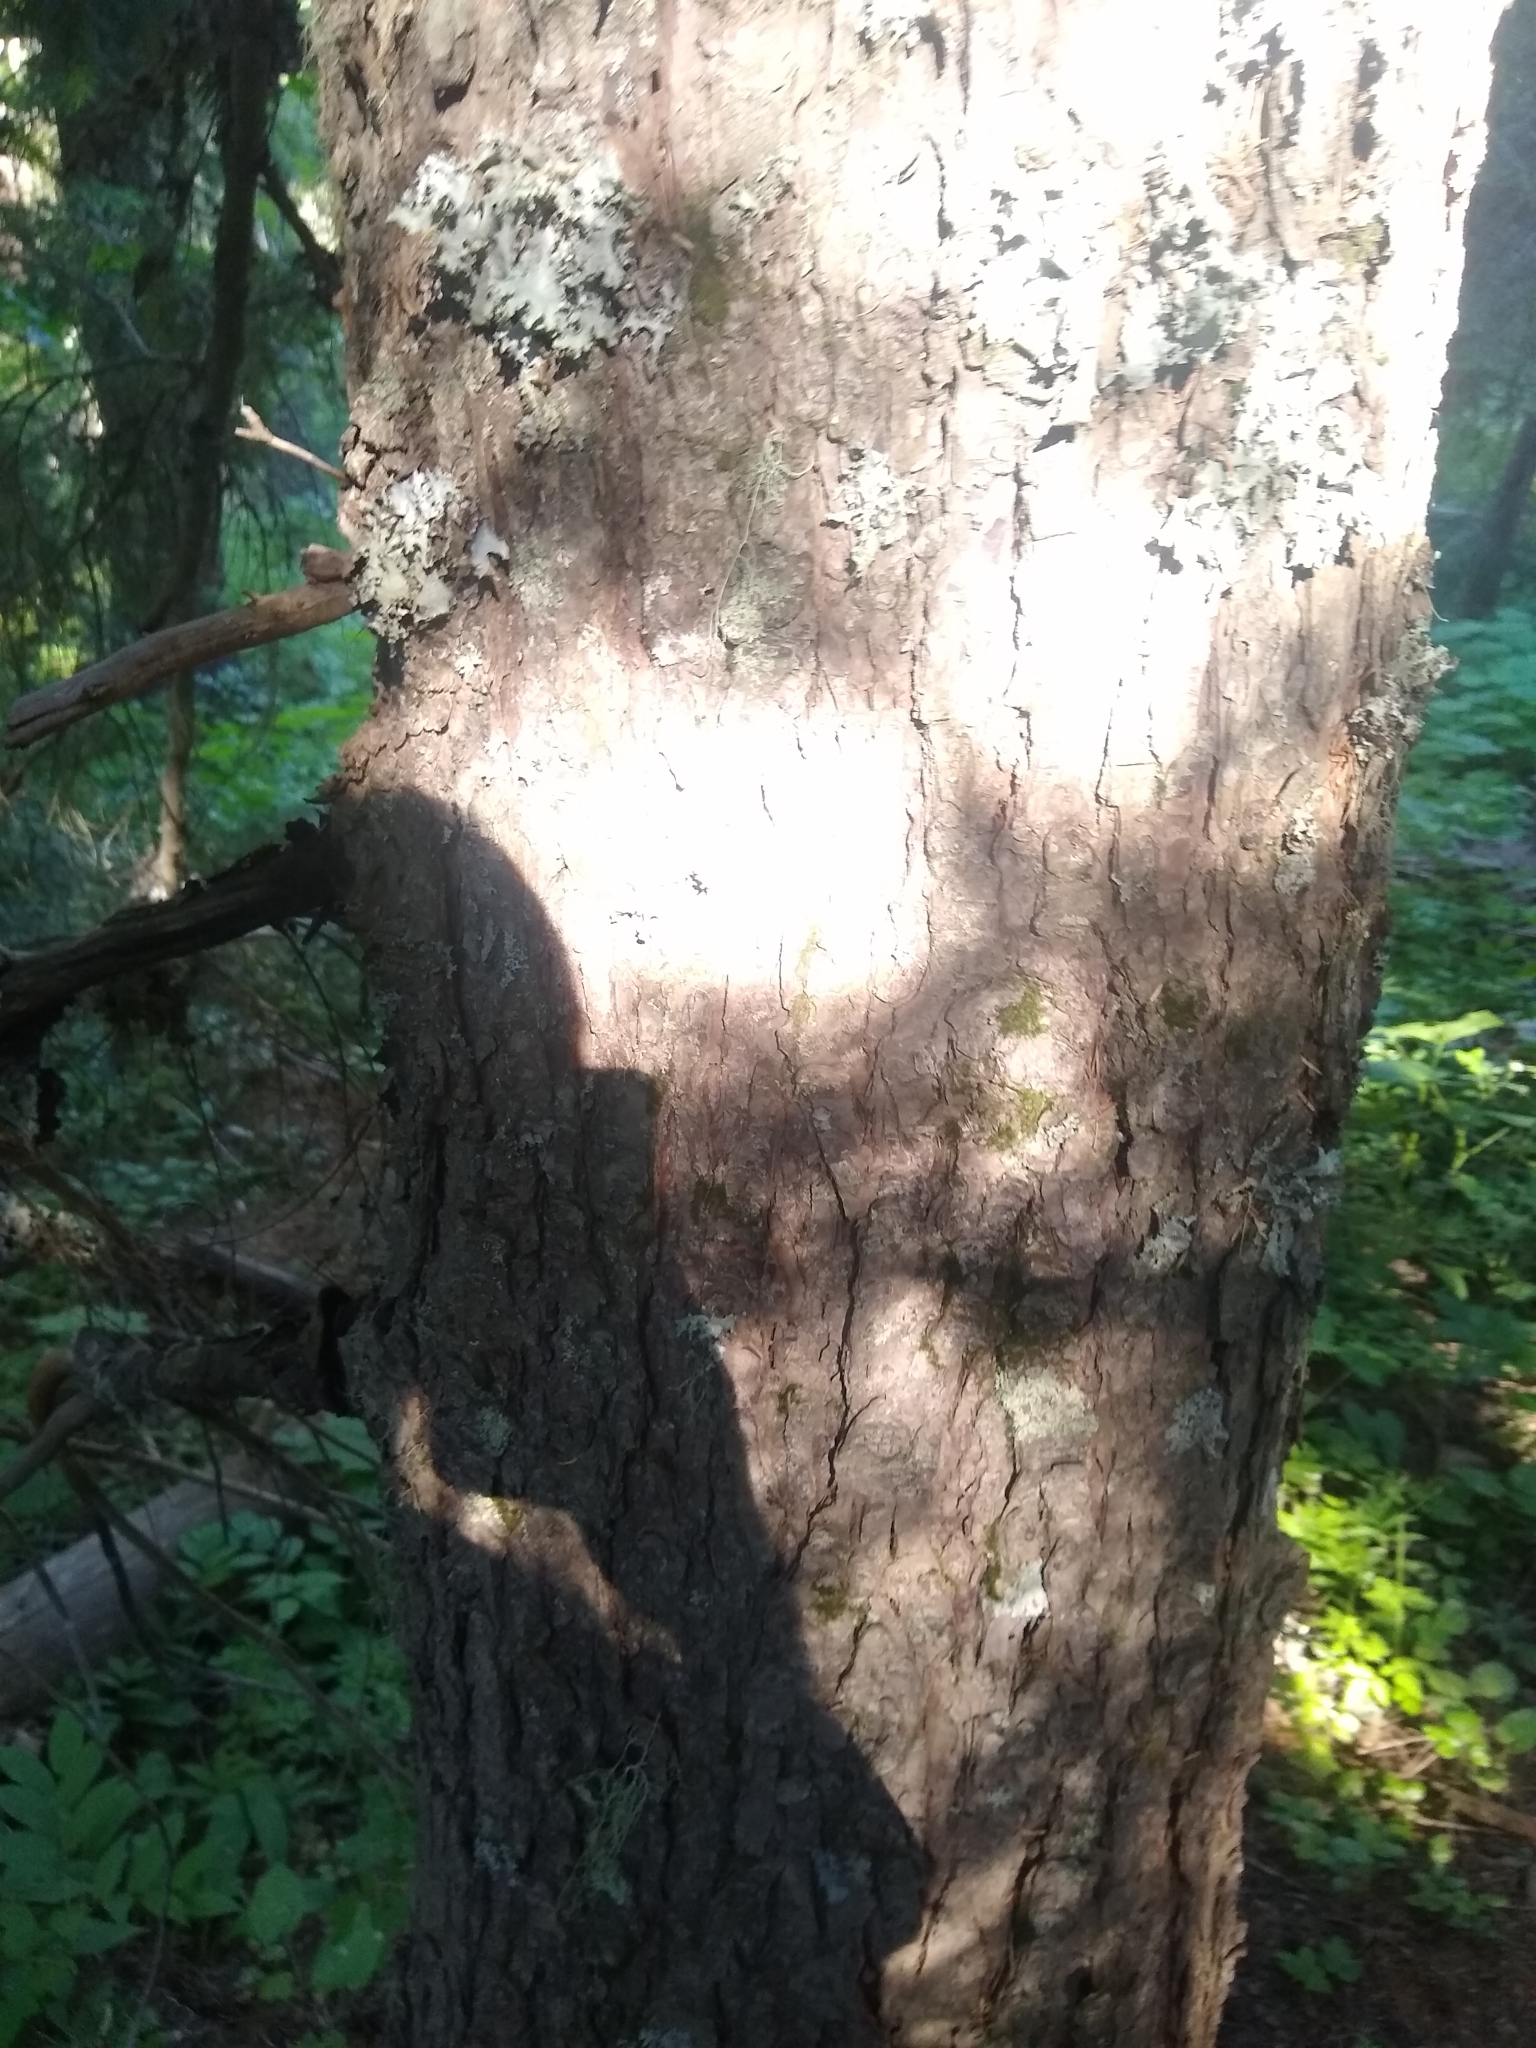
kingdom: Plantae
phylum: Tracheophyta
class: Pinopsida
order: Pinales
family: Pinaceae
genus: Tsuga
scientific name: Tsuga heterophylla
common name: Western hemlock
